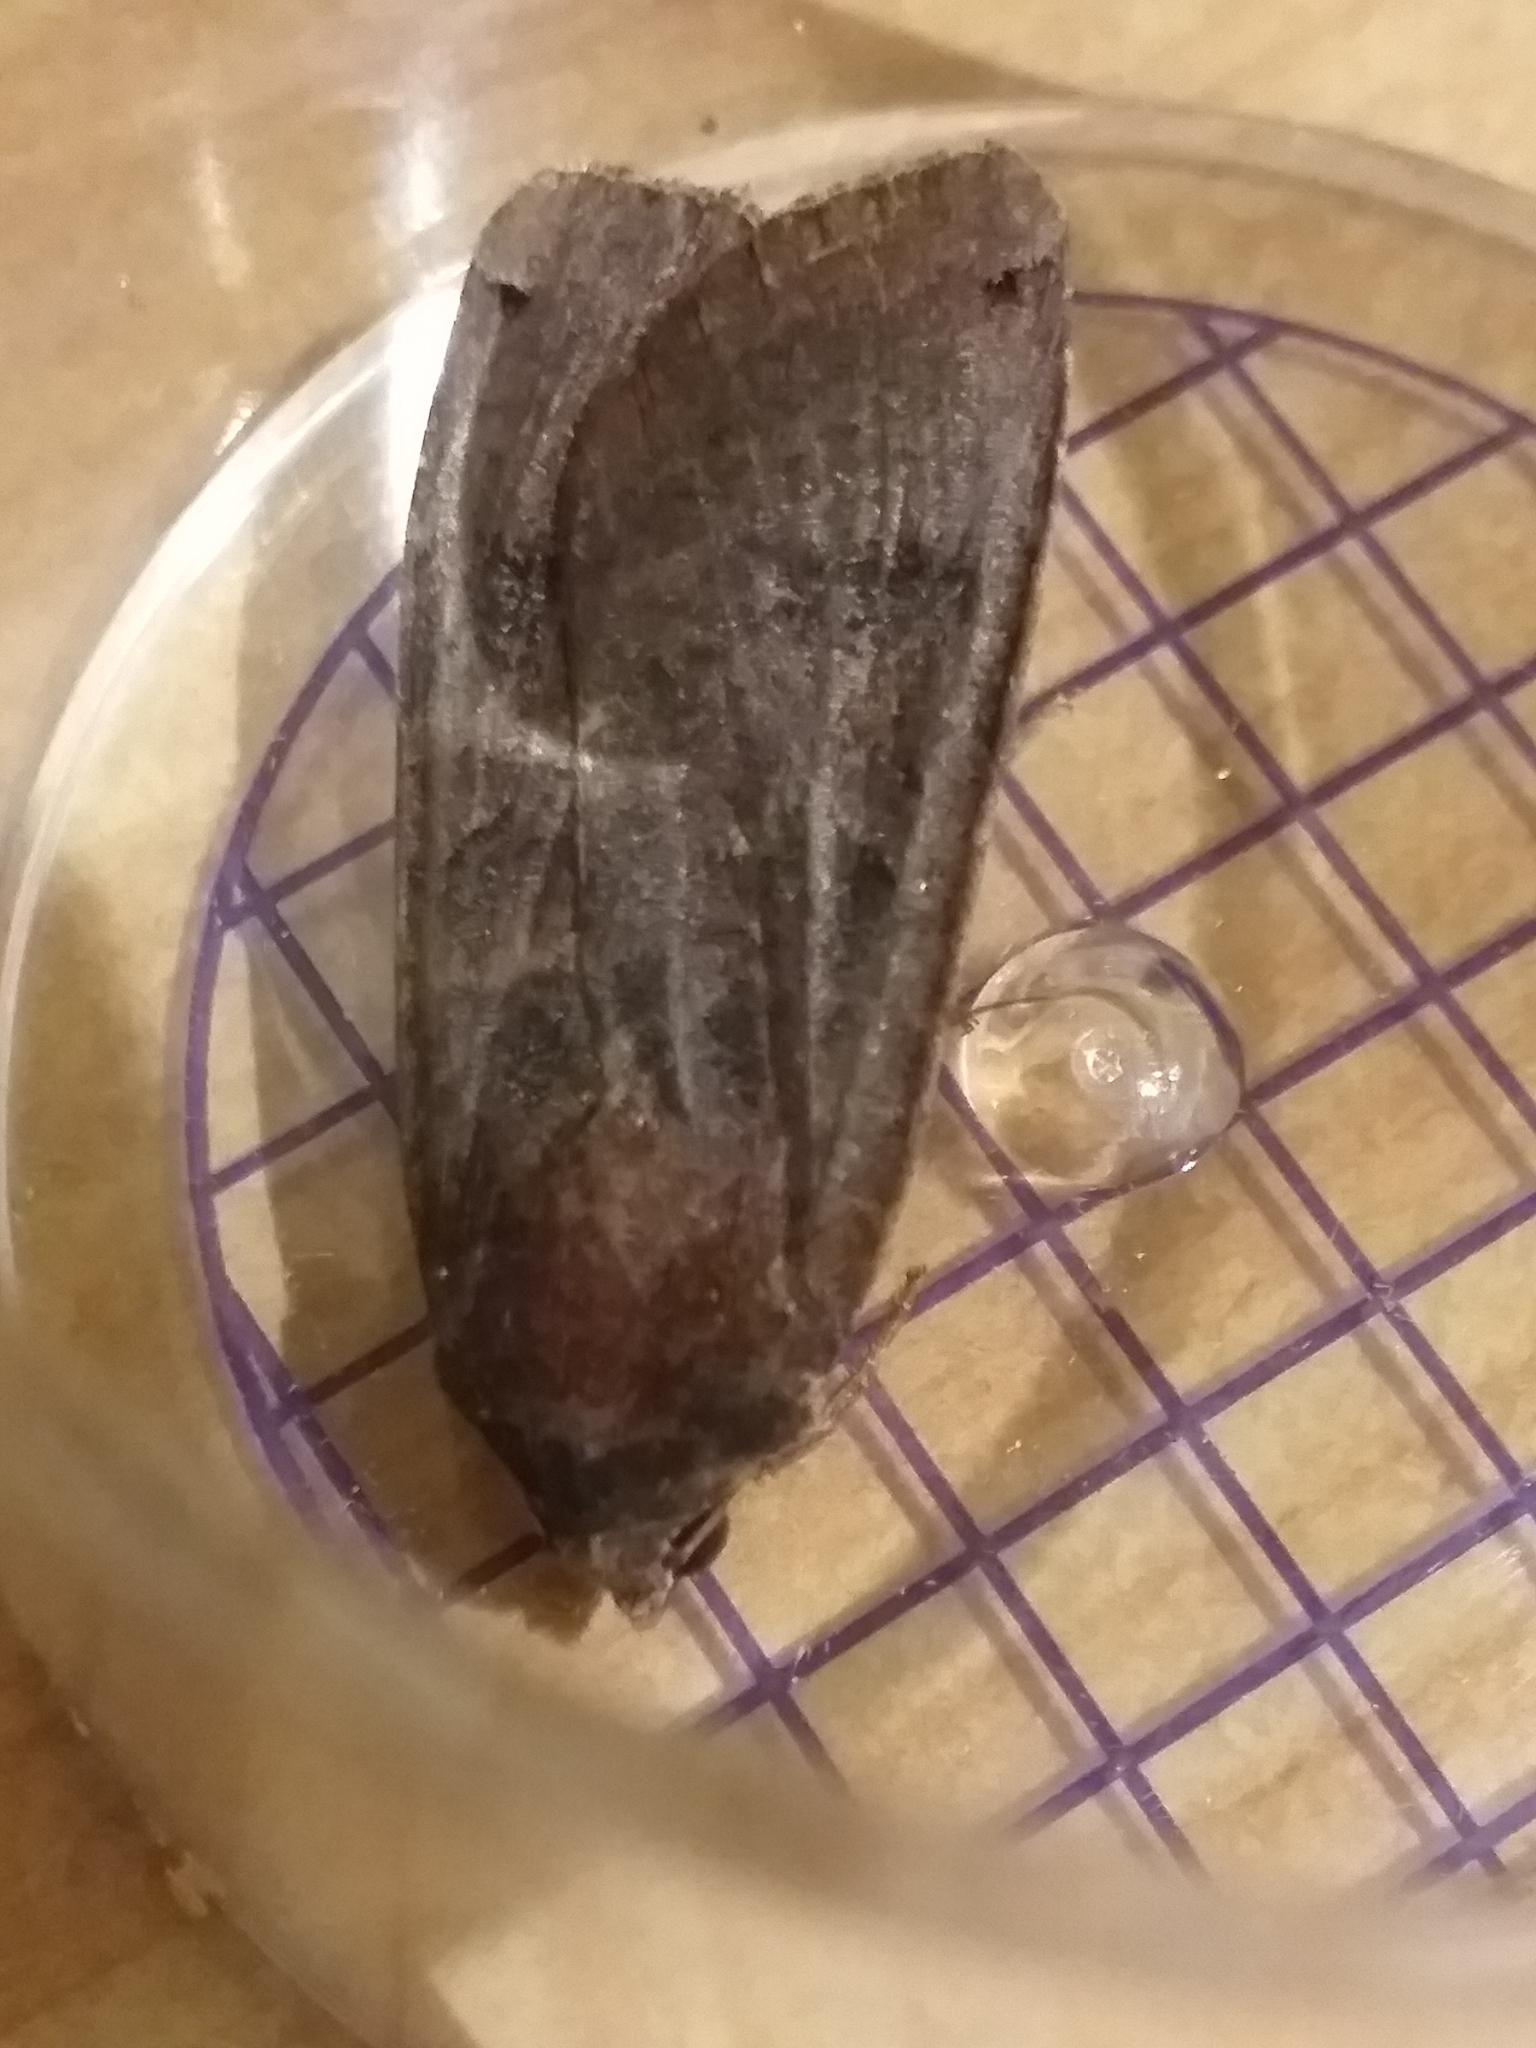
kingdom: Animalia
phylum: Arthropoda
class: Insecta
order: Lepidoptera
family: Noctuidae
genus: Noctua
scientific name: Noctua pronuba
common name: Large yellow underwing
